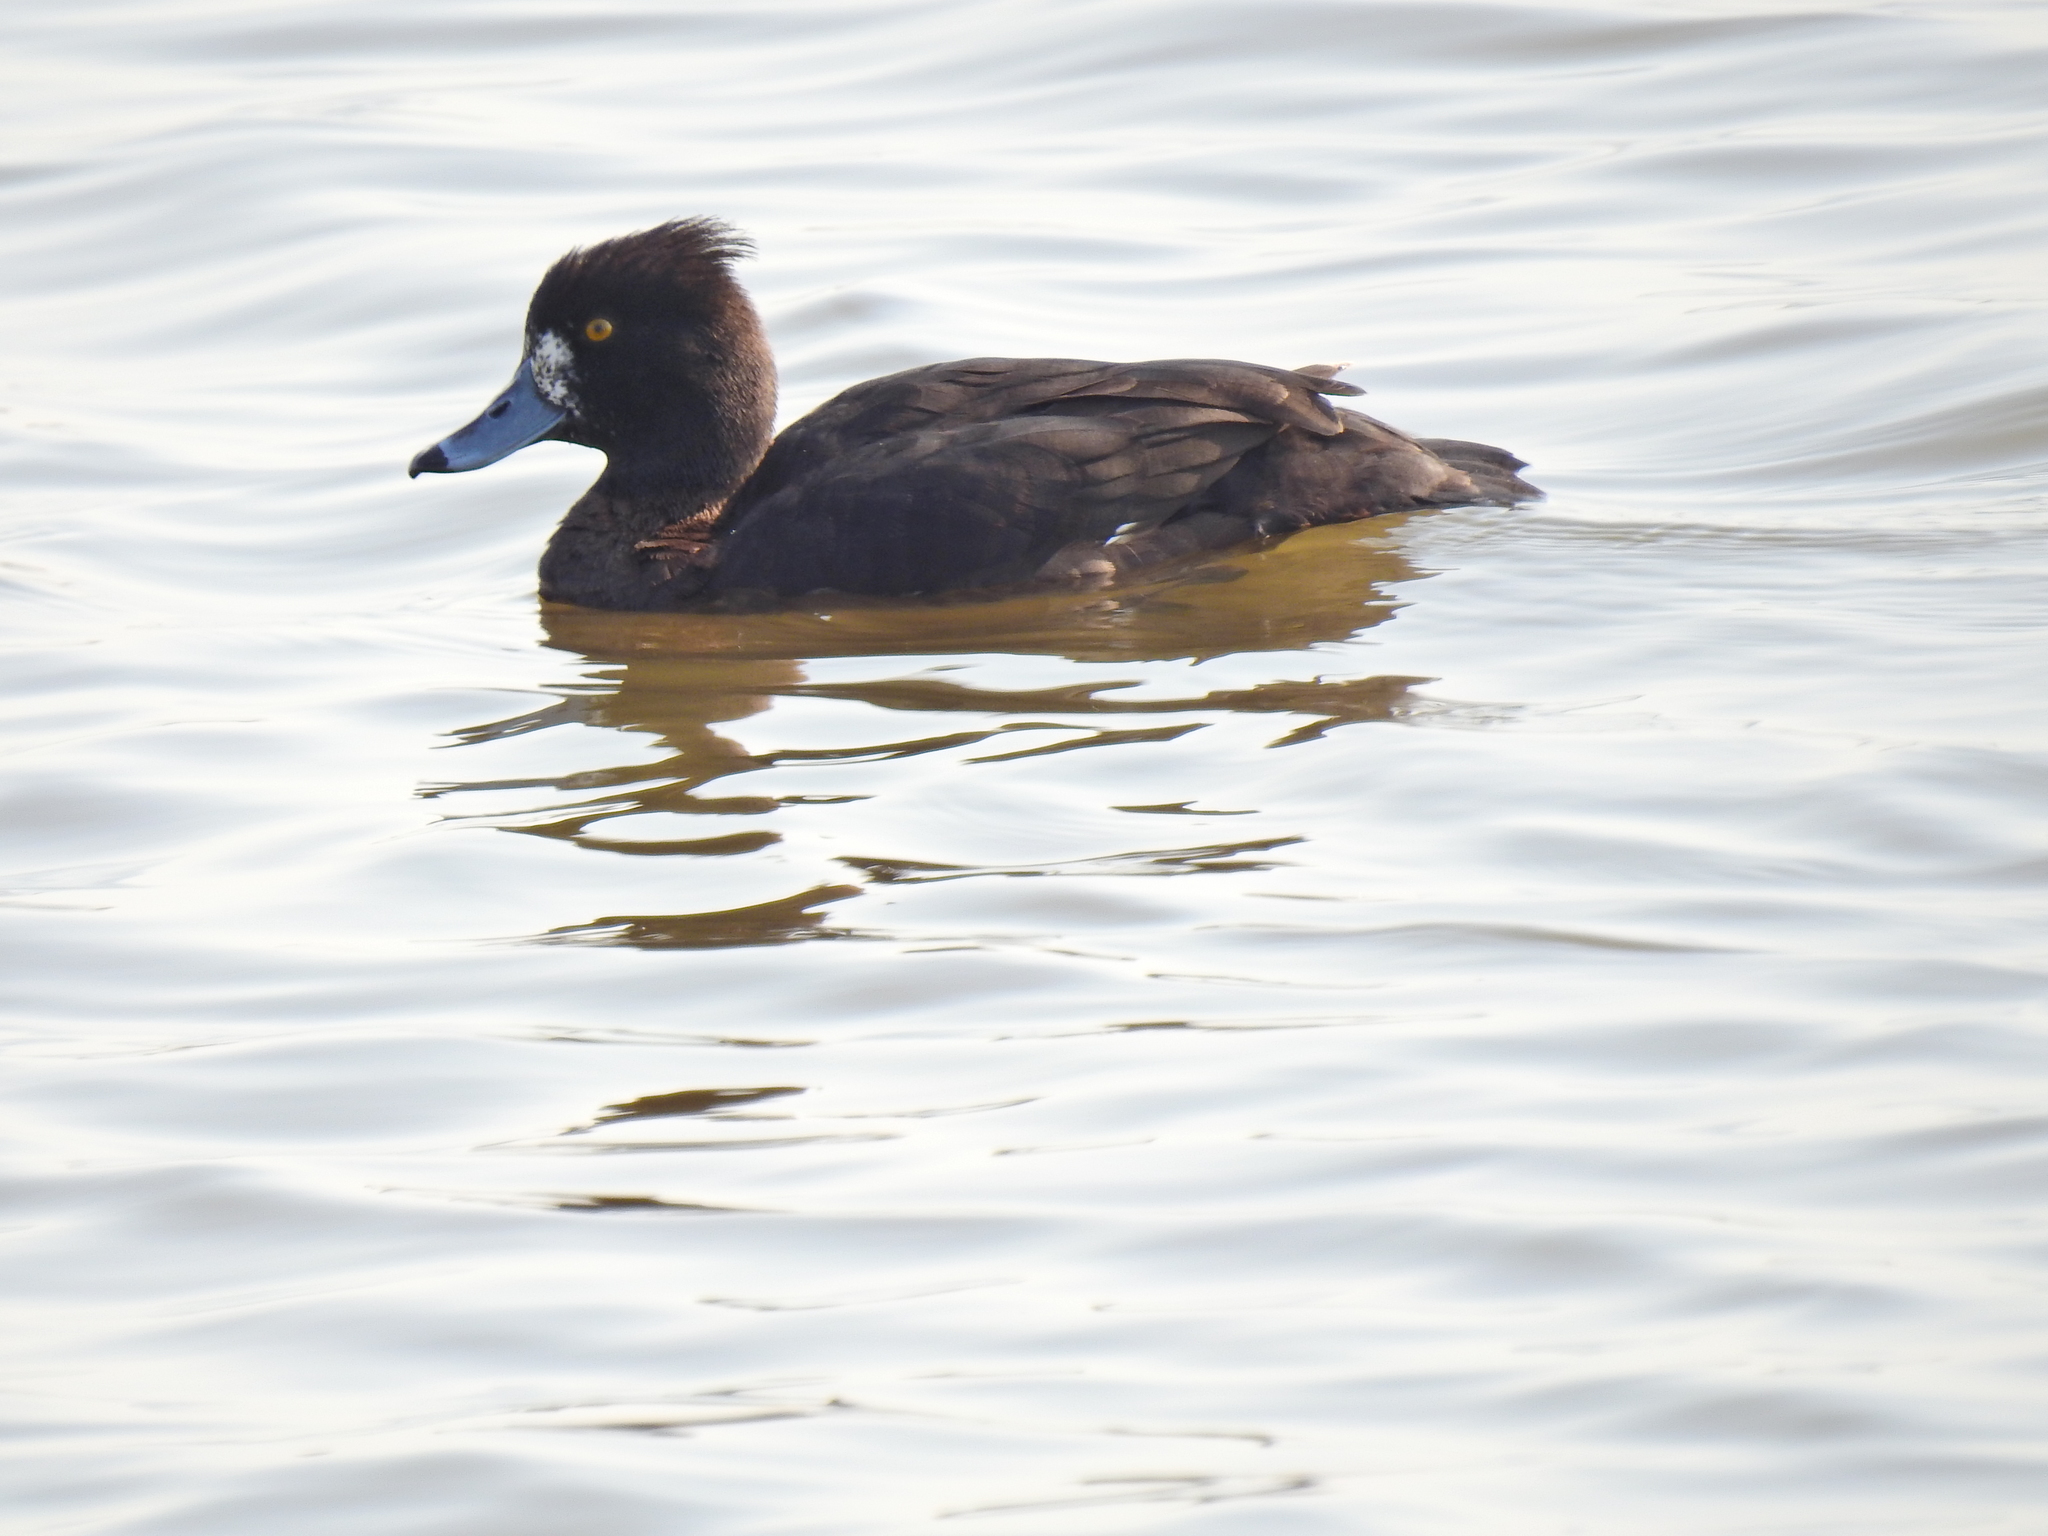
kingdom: Animalia
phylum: Chordata
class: Aves
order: Anseriformes
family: Anatidae
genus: Aythya
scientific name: Aythya fuligula
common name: Tufted duck
